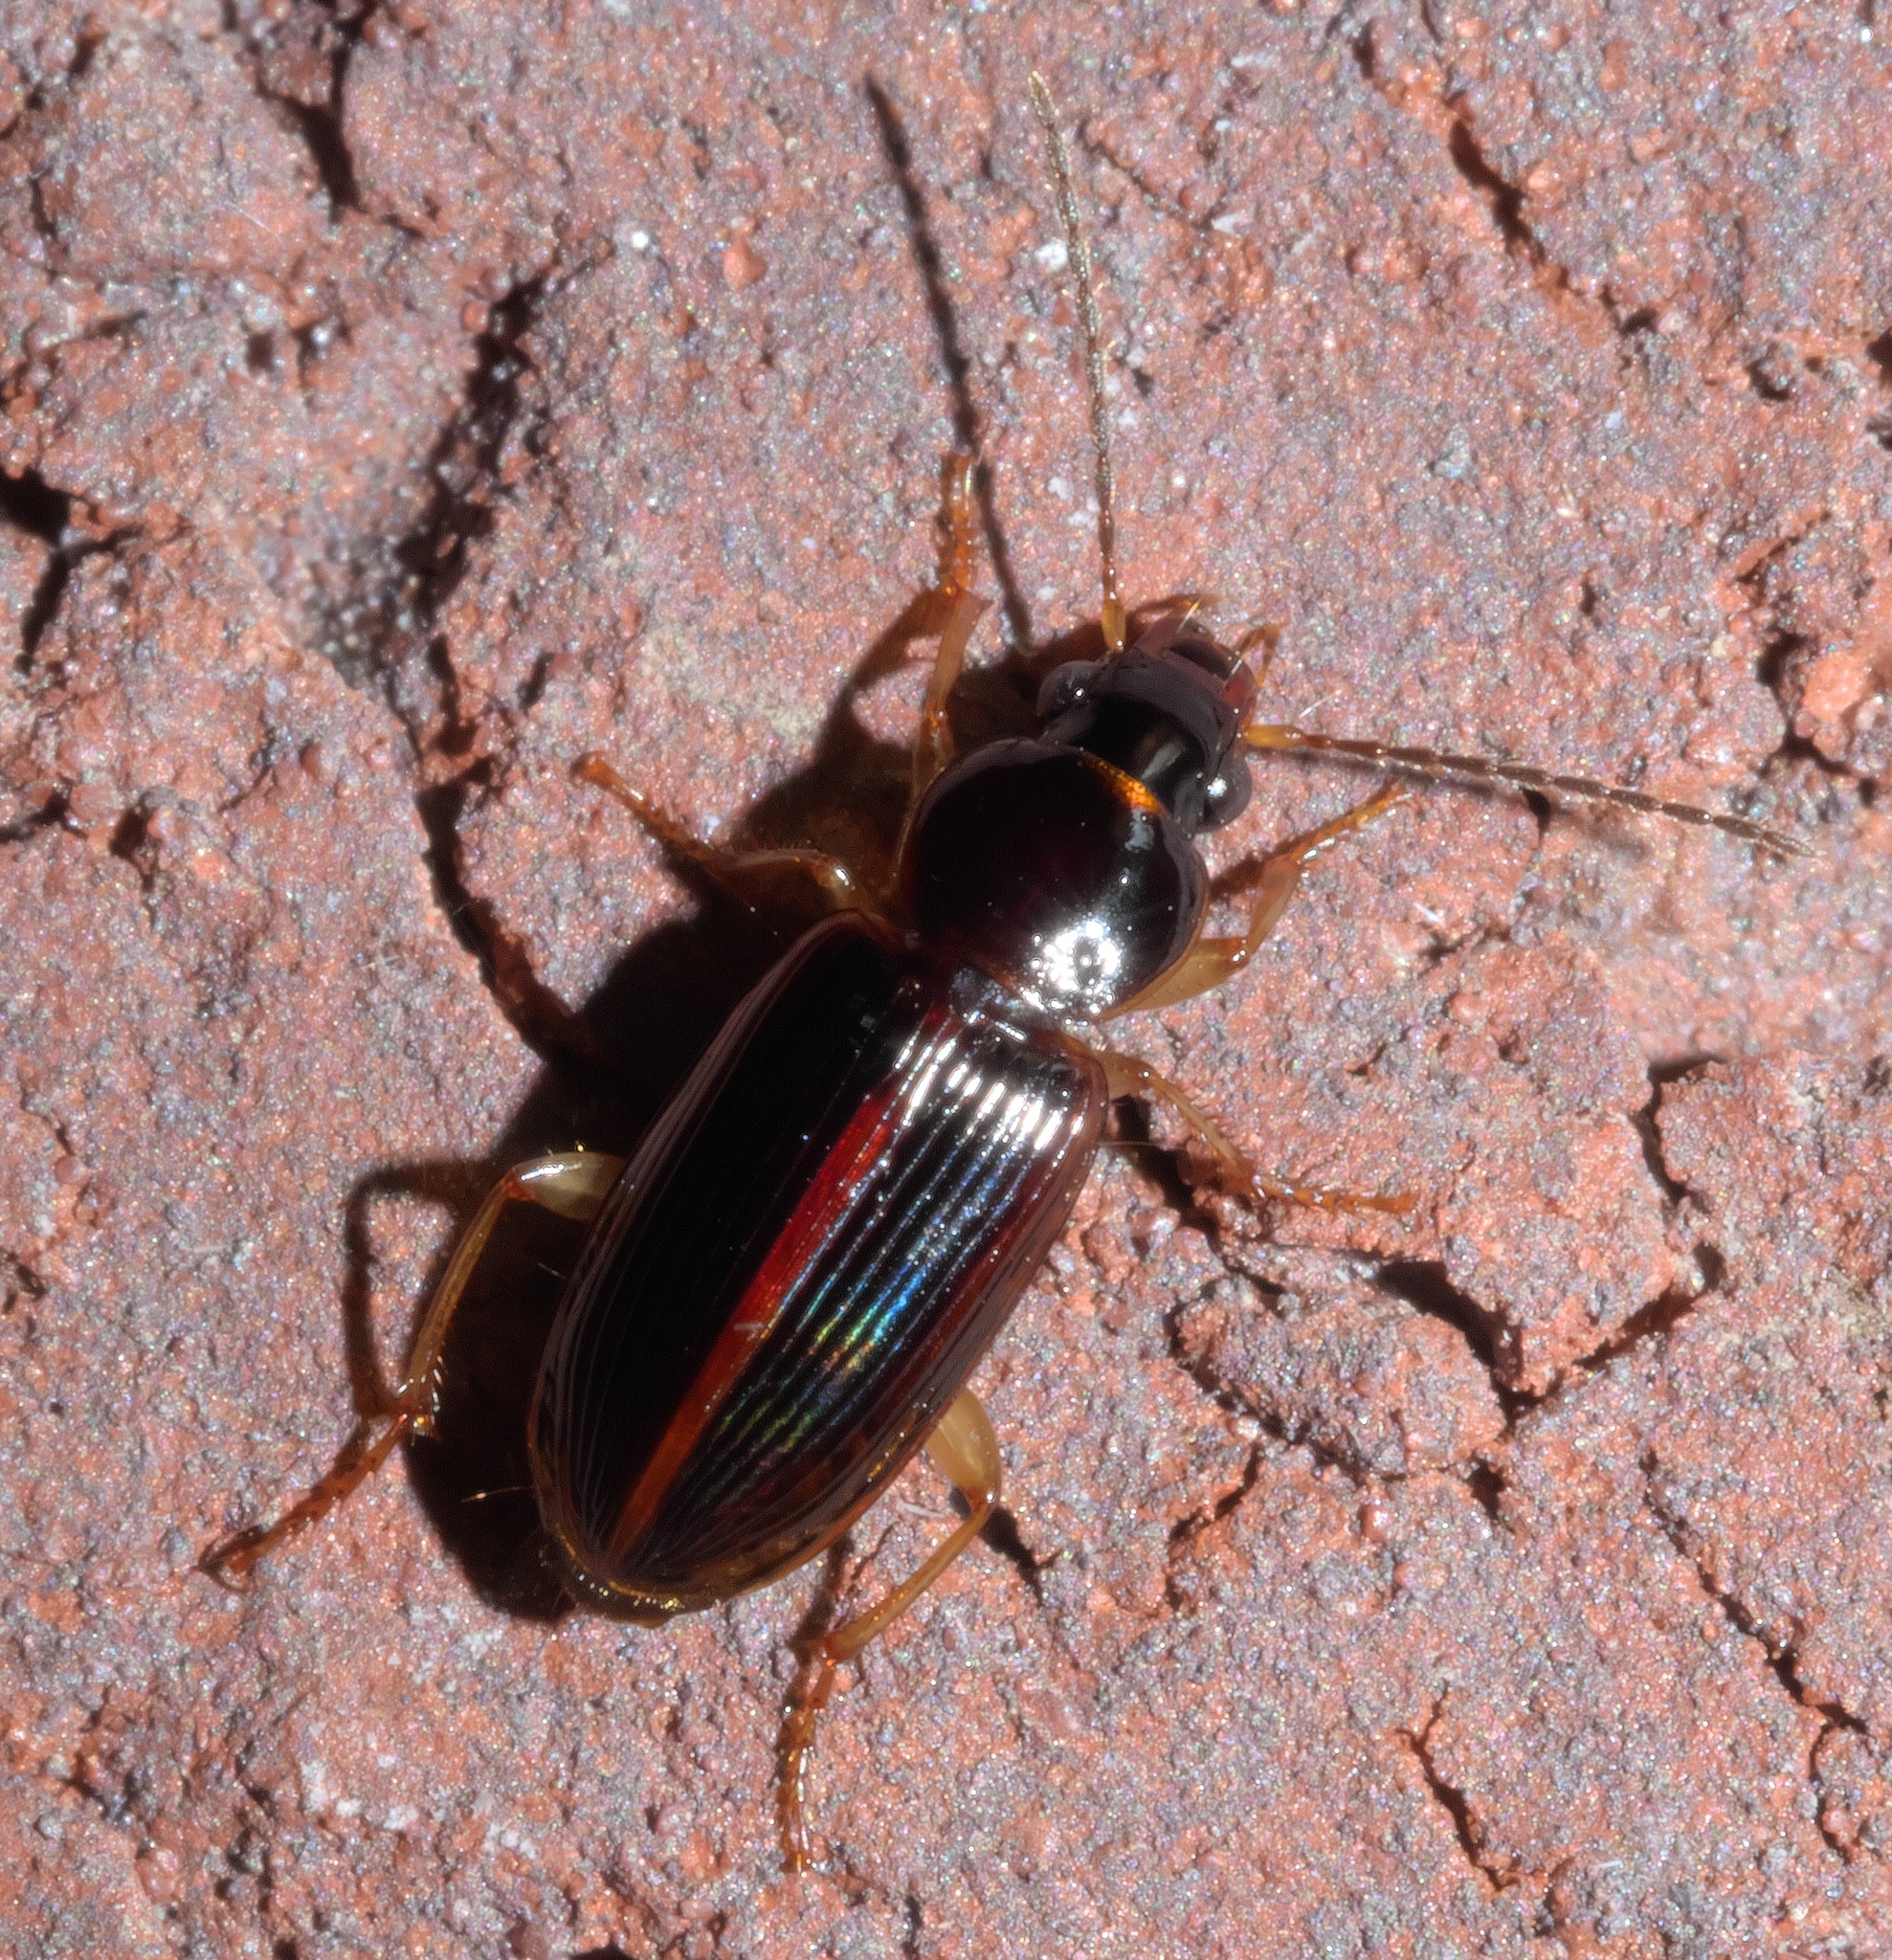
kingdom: Animalia
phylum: Arthropoda
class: Insecta
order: Coleoptera
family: Carabidae
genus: Stenolophus
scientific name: Stenolophus ochropezus
